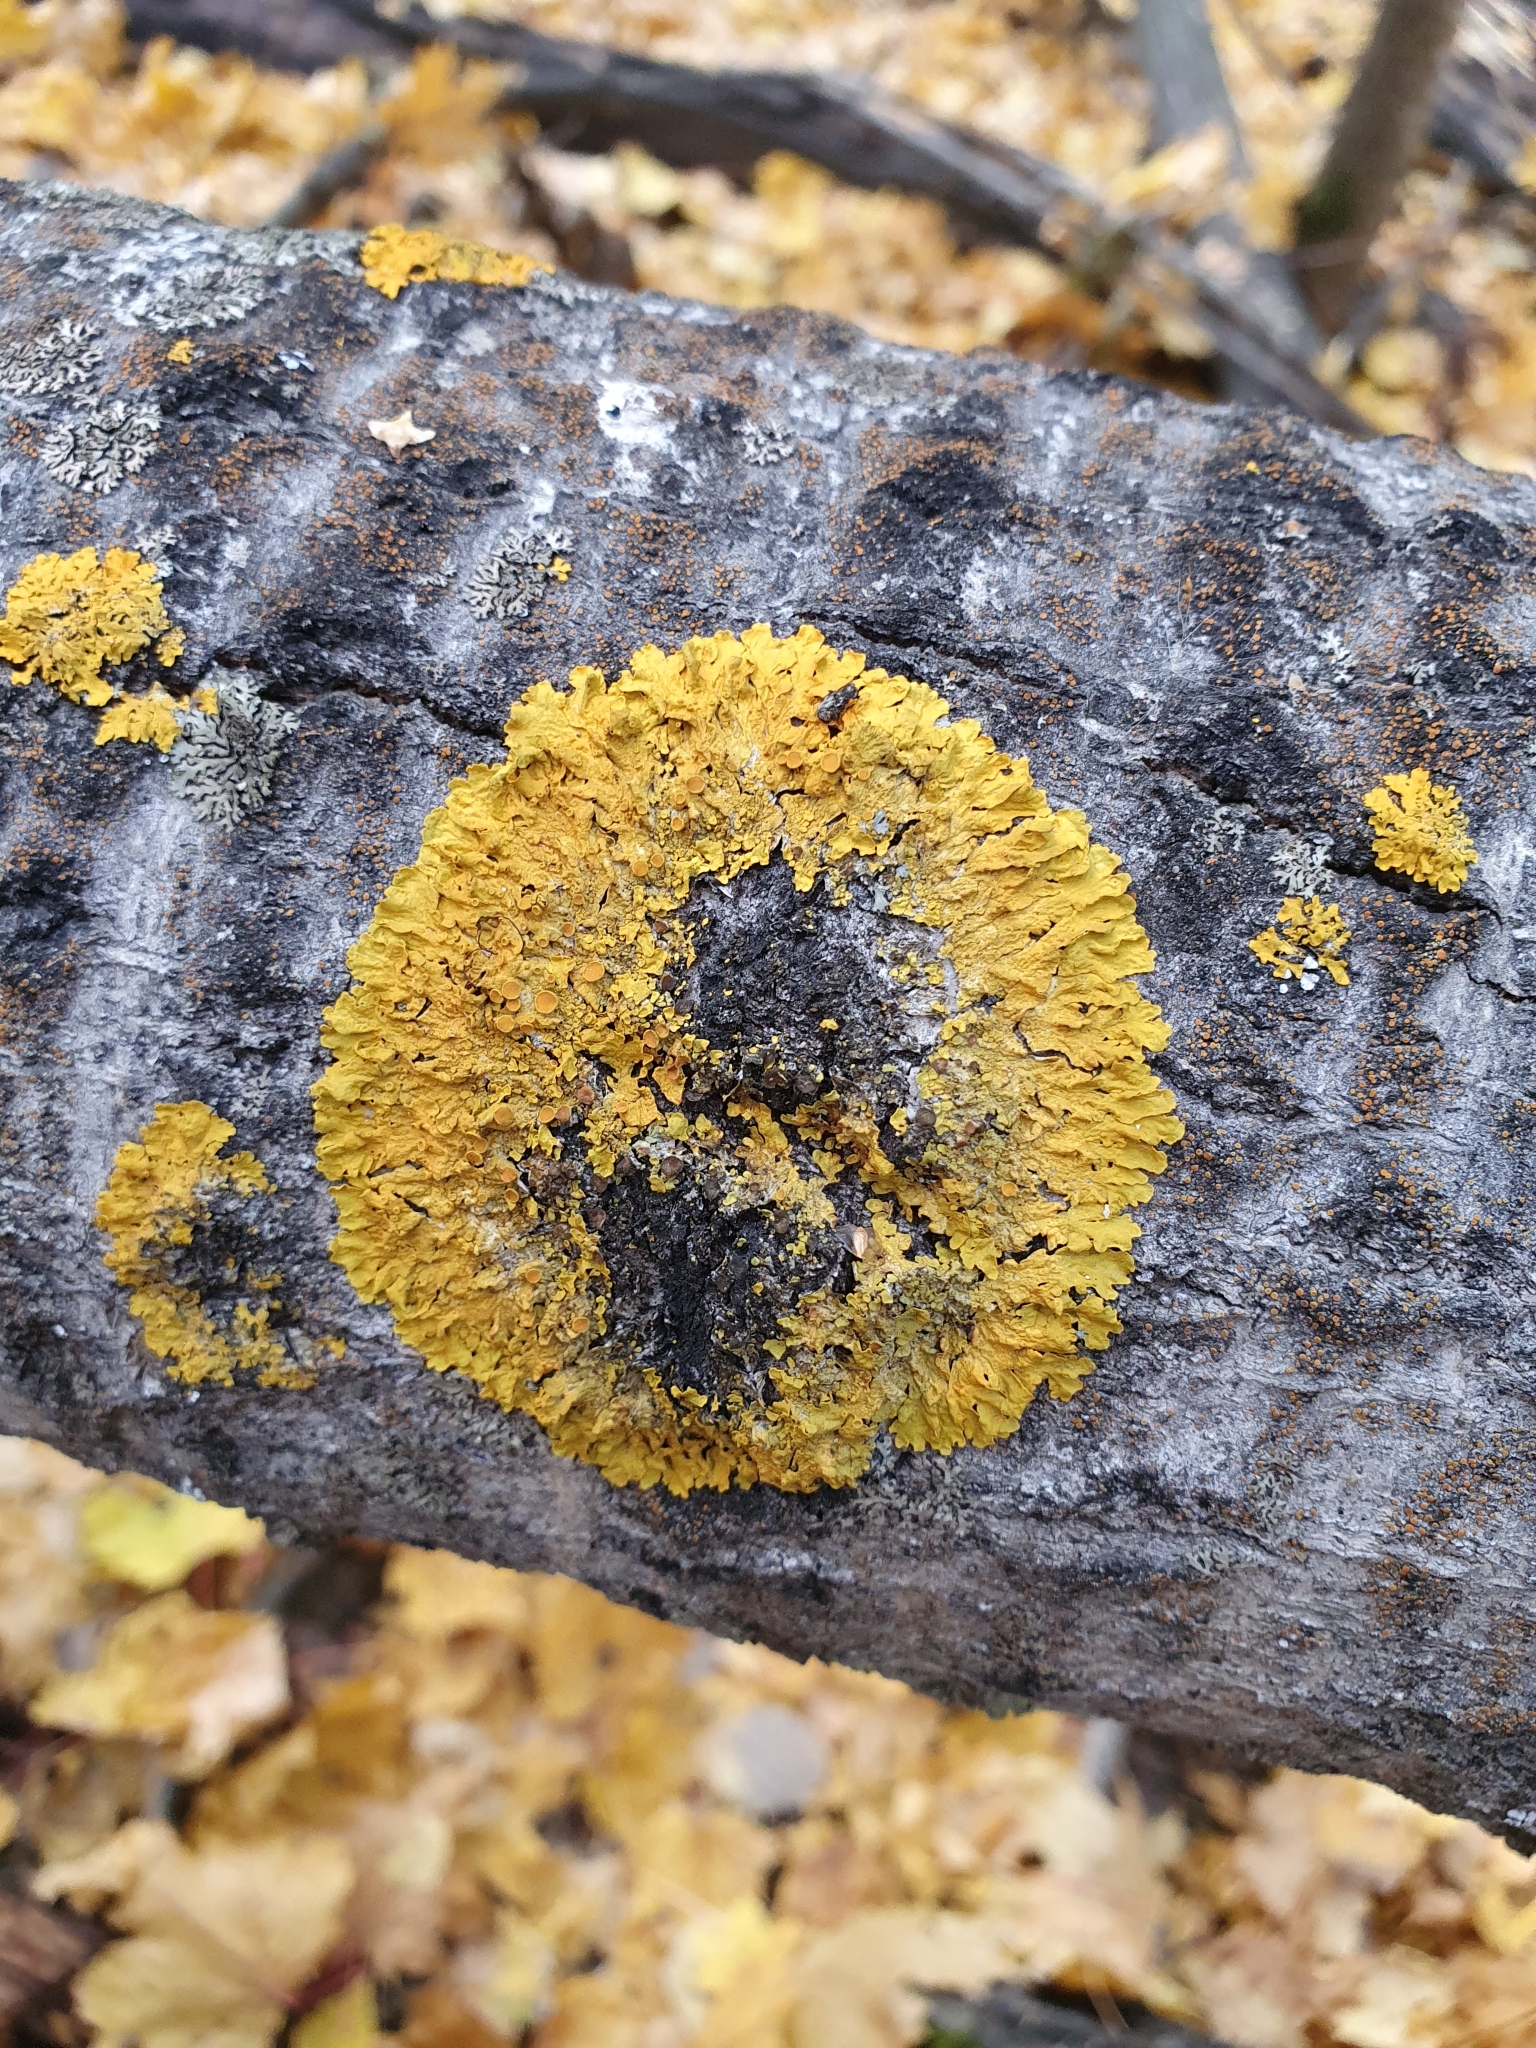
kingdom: Fungi
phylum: Ascomycota
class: Lecanoromycetes
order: Teloschistales
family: Teloschistaceae
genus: Xanthoria
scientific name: Xanthoria parietina
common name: Common orange lichen
